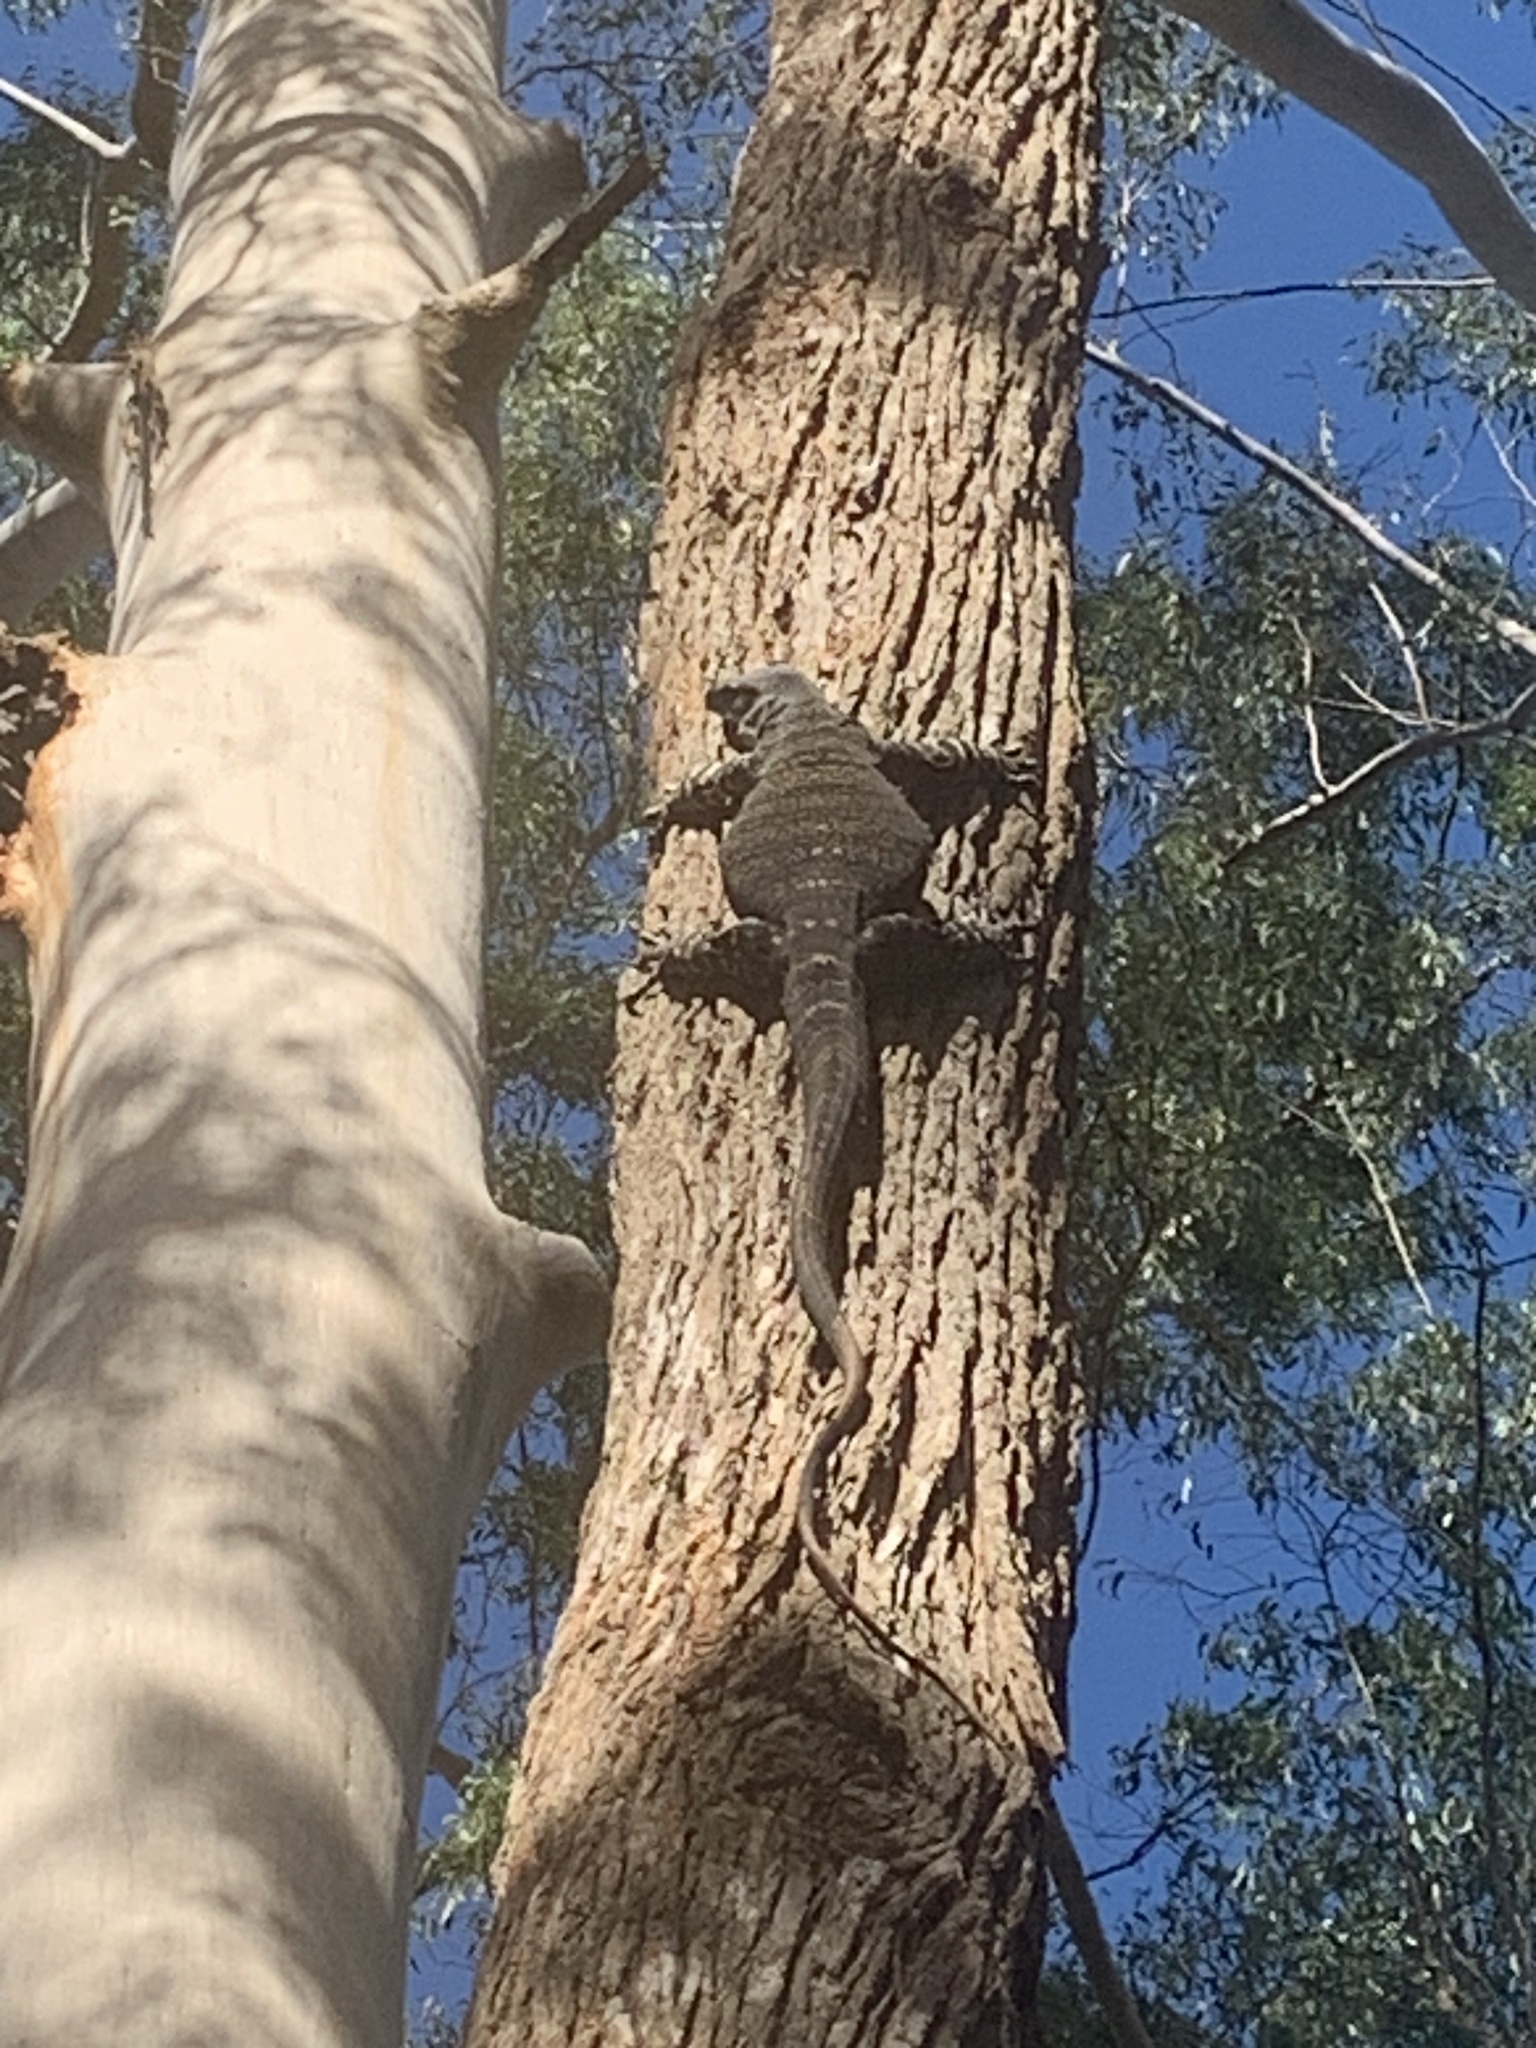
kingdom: Animalia
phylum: Chordata
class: Squamata
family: Varanidae
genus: Varanus
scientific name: Varanus varius
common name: Lace monitor
